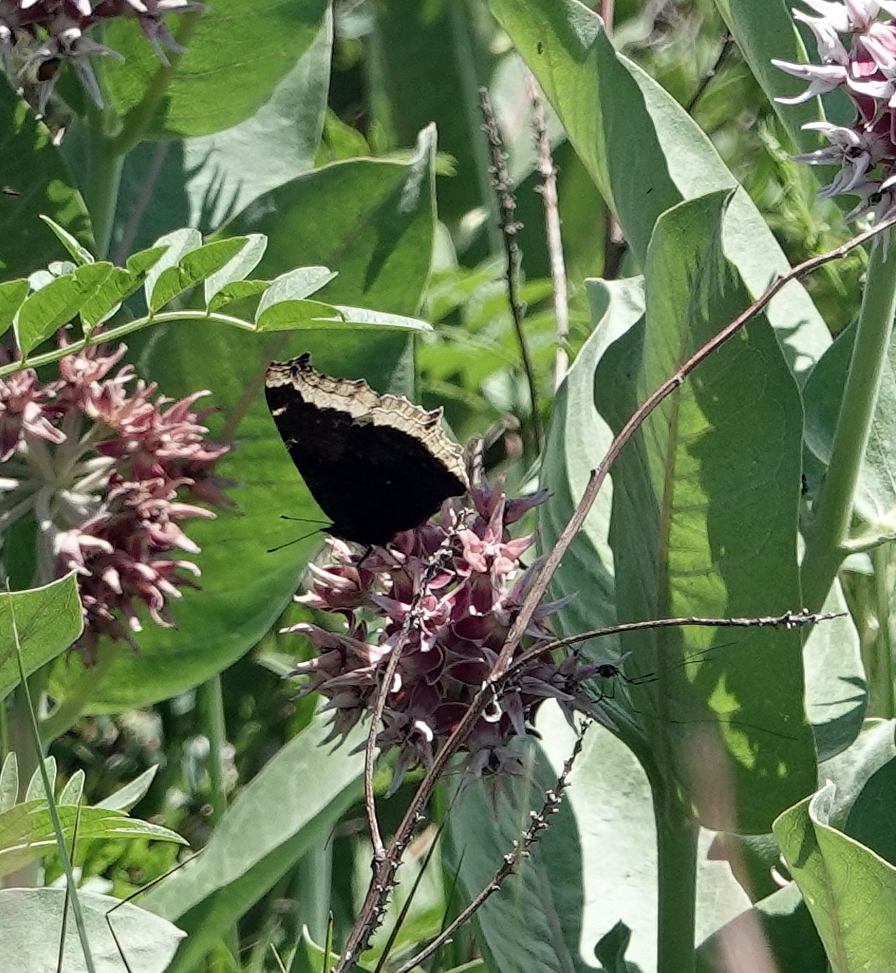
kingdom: Animalia
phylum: Arthropoda
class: Insecta
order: Lepidoptera
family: Nymphalidae
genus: Nymphalis
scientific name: Nymphalis antiopa
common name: Camberwell beauty
